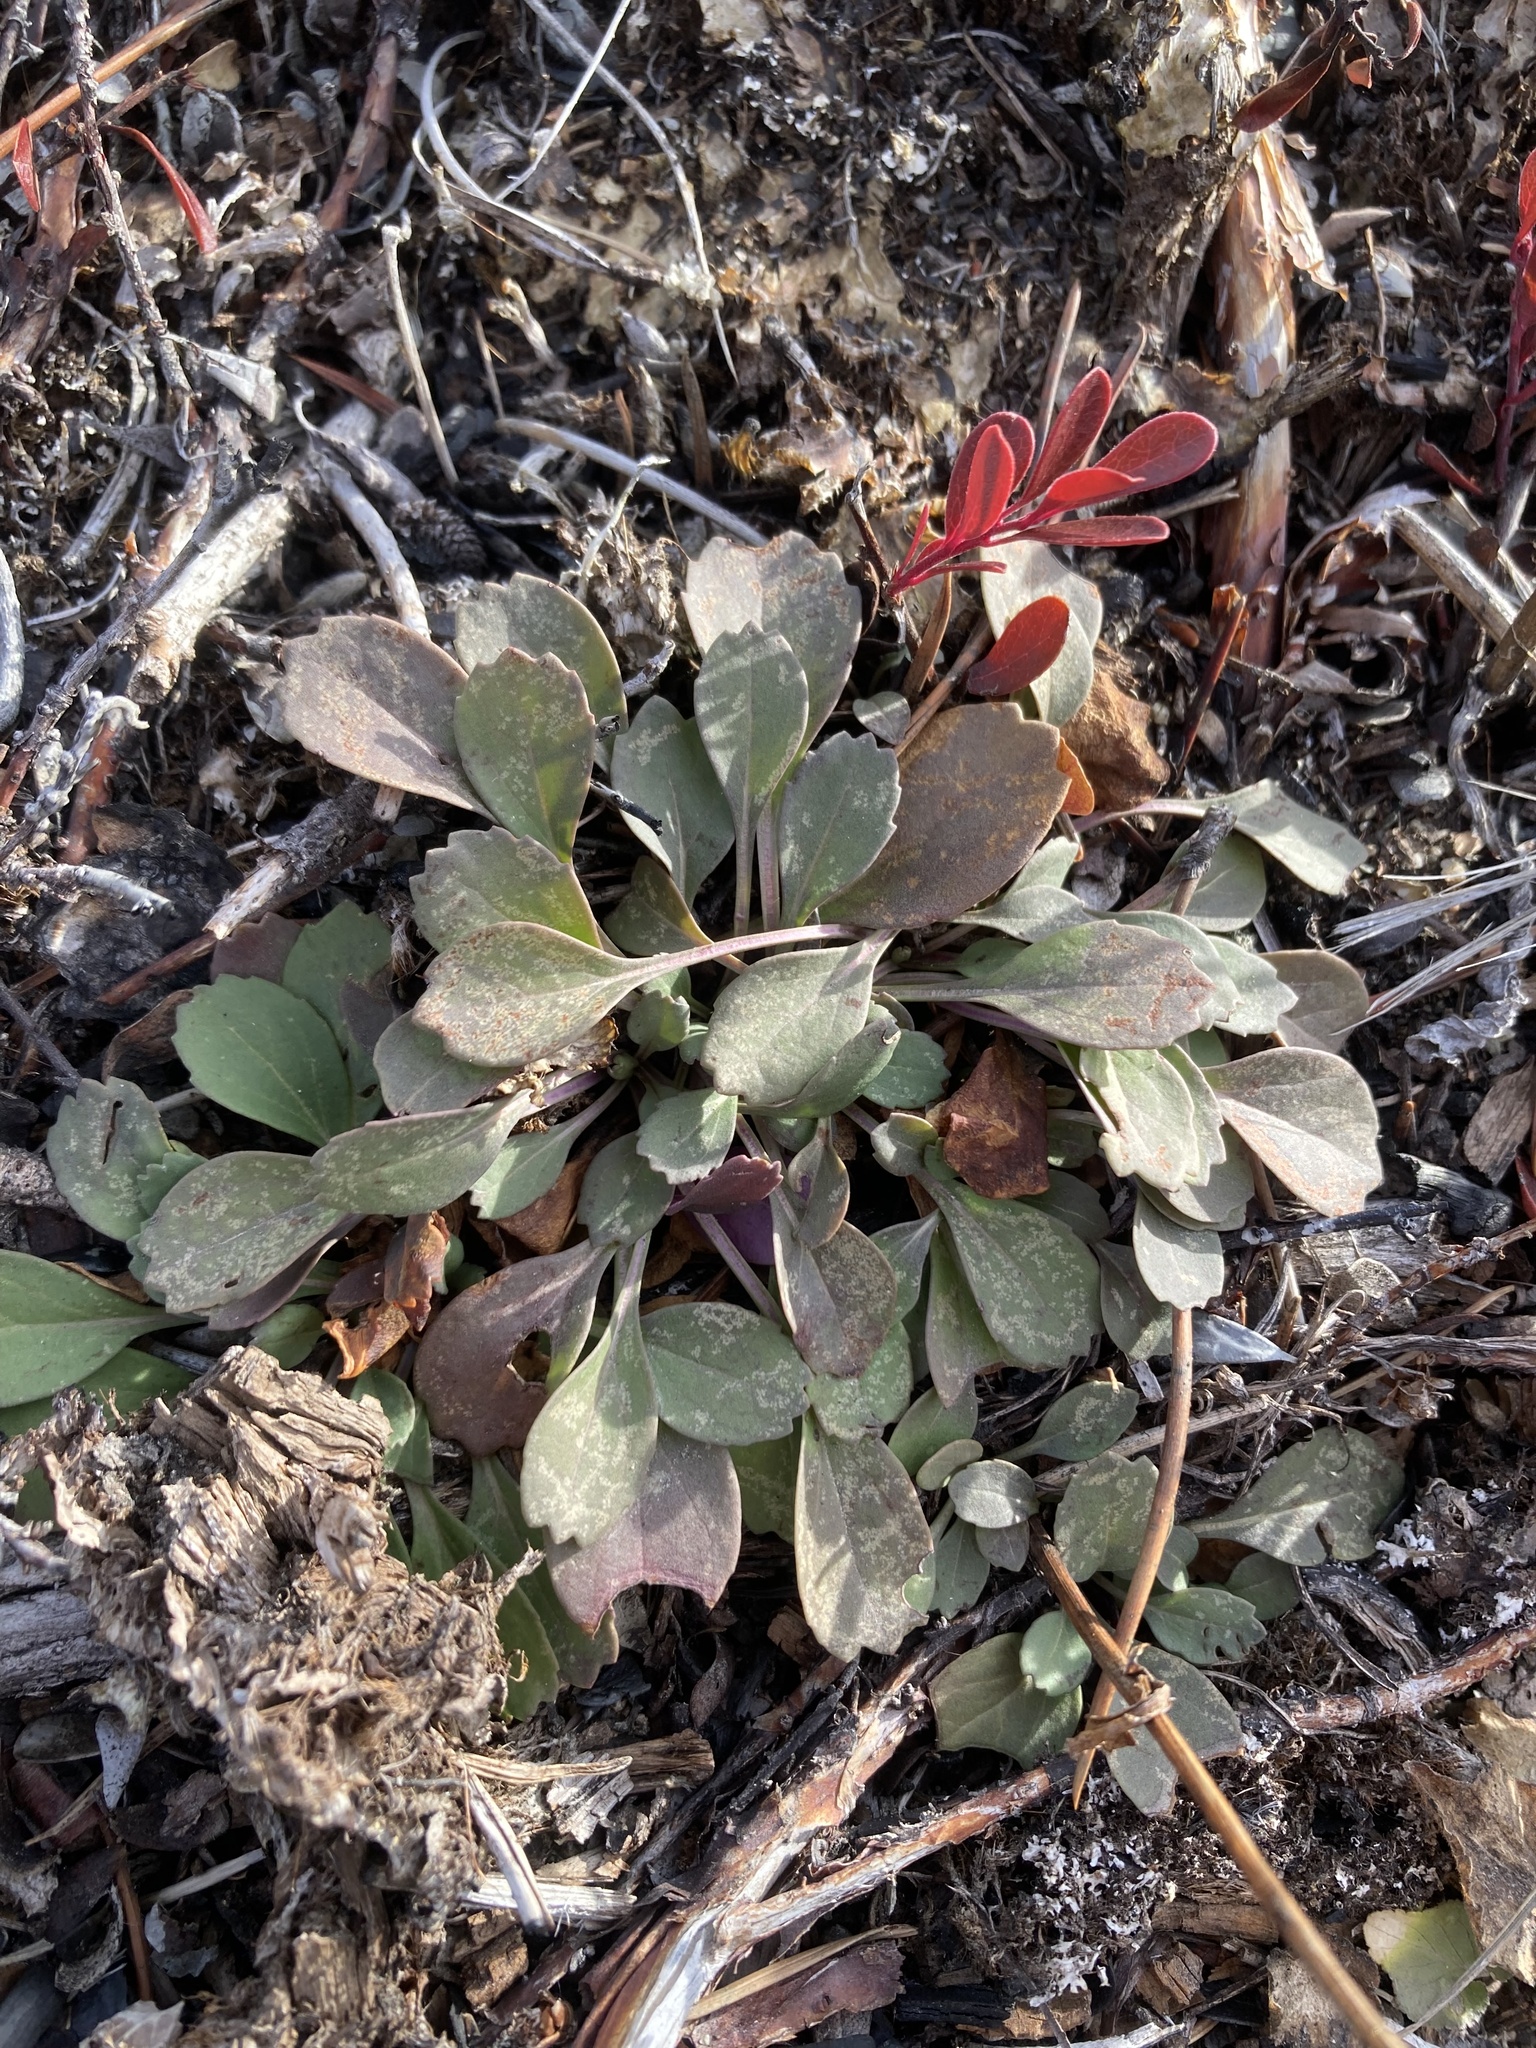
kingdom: Plantae
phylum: Tracheophyta
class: Magnoliopsida
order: Asterales
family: Asteraceae
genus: Packera
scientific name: Packera streptanthifolia
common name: Rocky mountain butterweed
